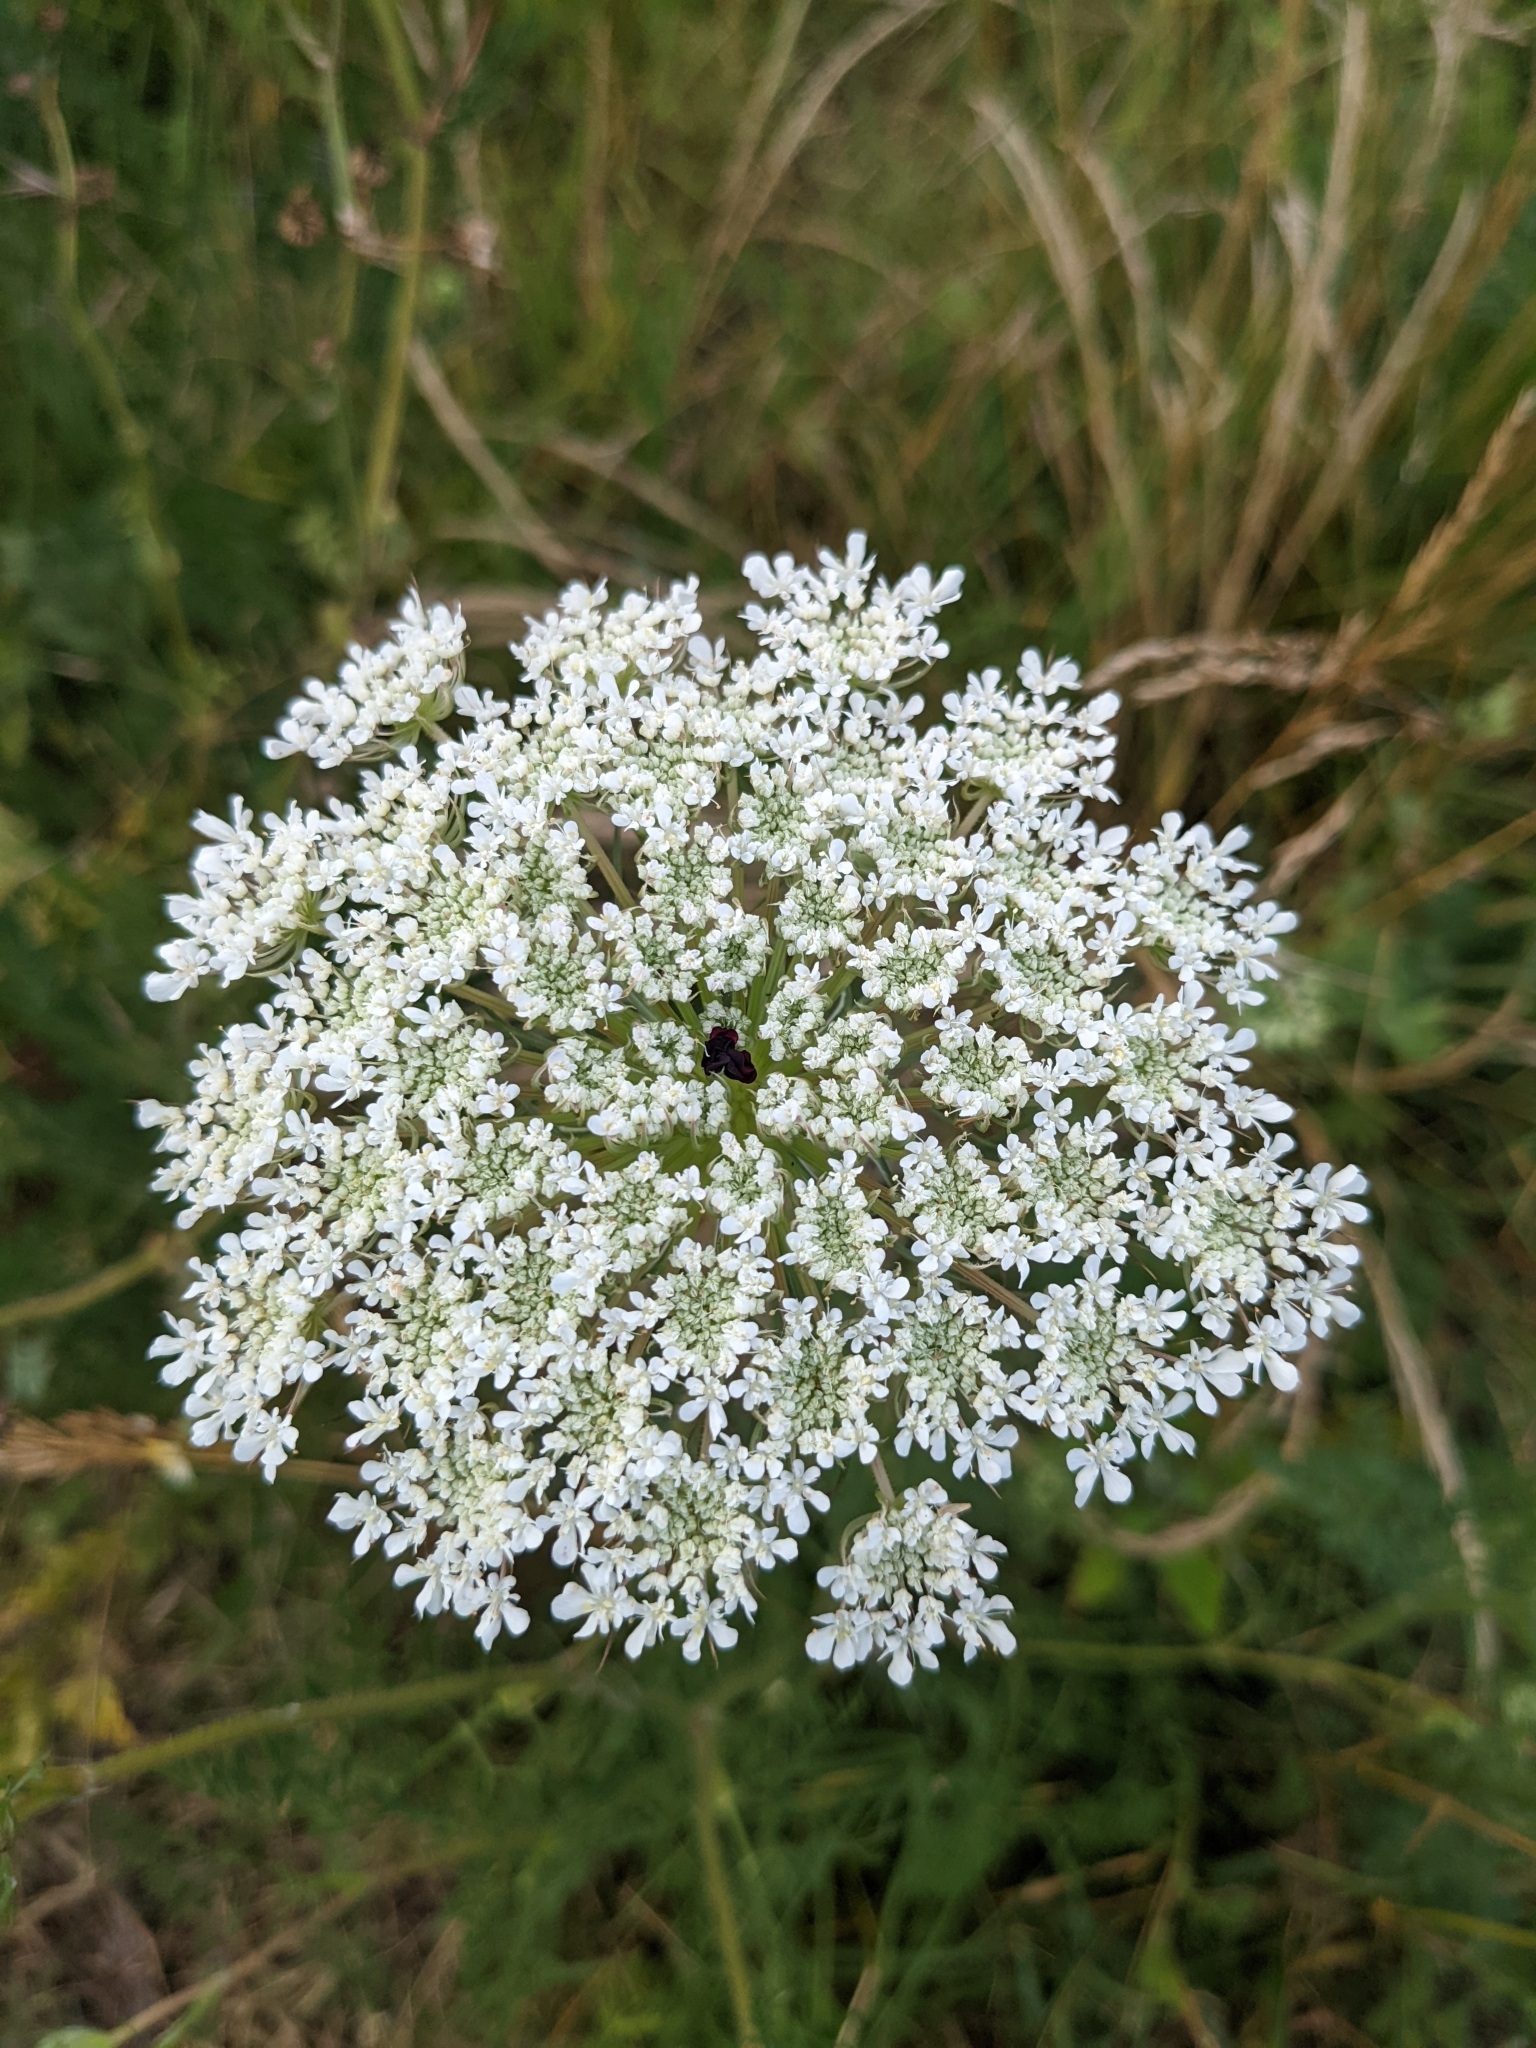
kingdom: Plantae
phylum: Tracheophyta
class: Magnoliopsida
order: Apiales
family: Apiaceae
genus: Daucus
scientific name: Daucus carota
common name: Wild carrot
